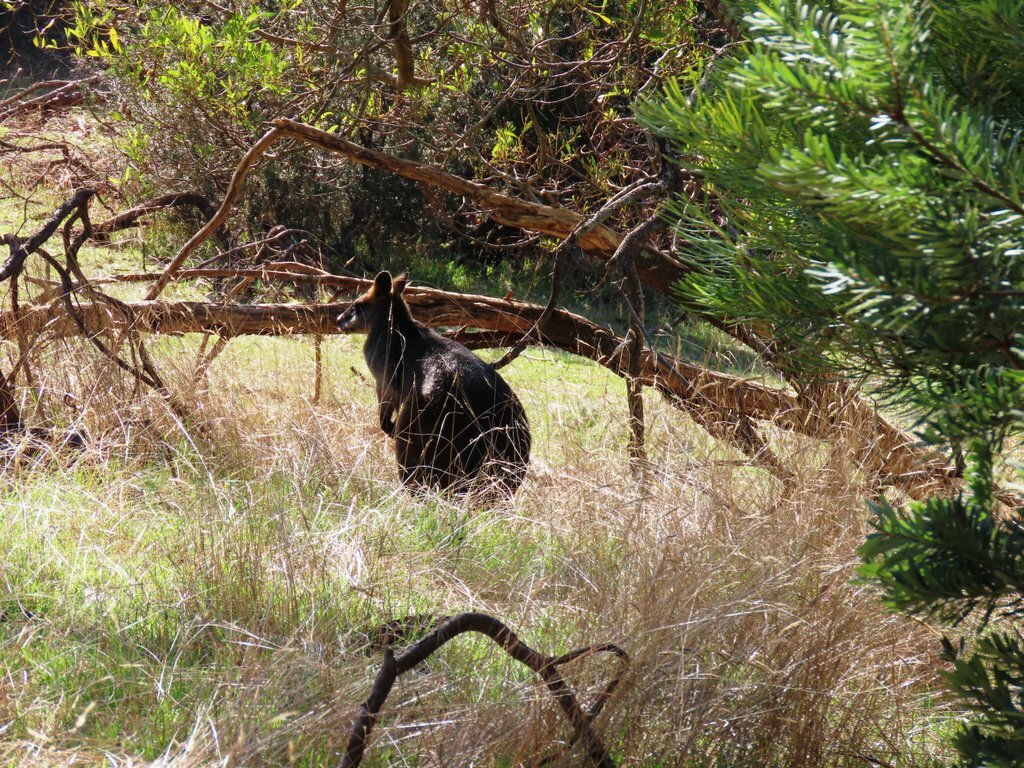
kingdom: Animalia
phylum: Chordata
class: Mammalia
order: Diprotodontia
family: Macropodidae
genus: Wallabia
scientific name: Wallabia bicolor
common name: Swamp wallaby
